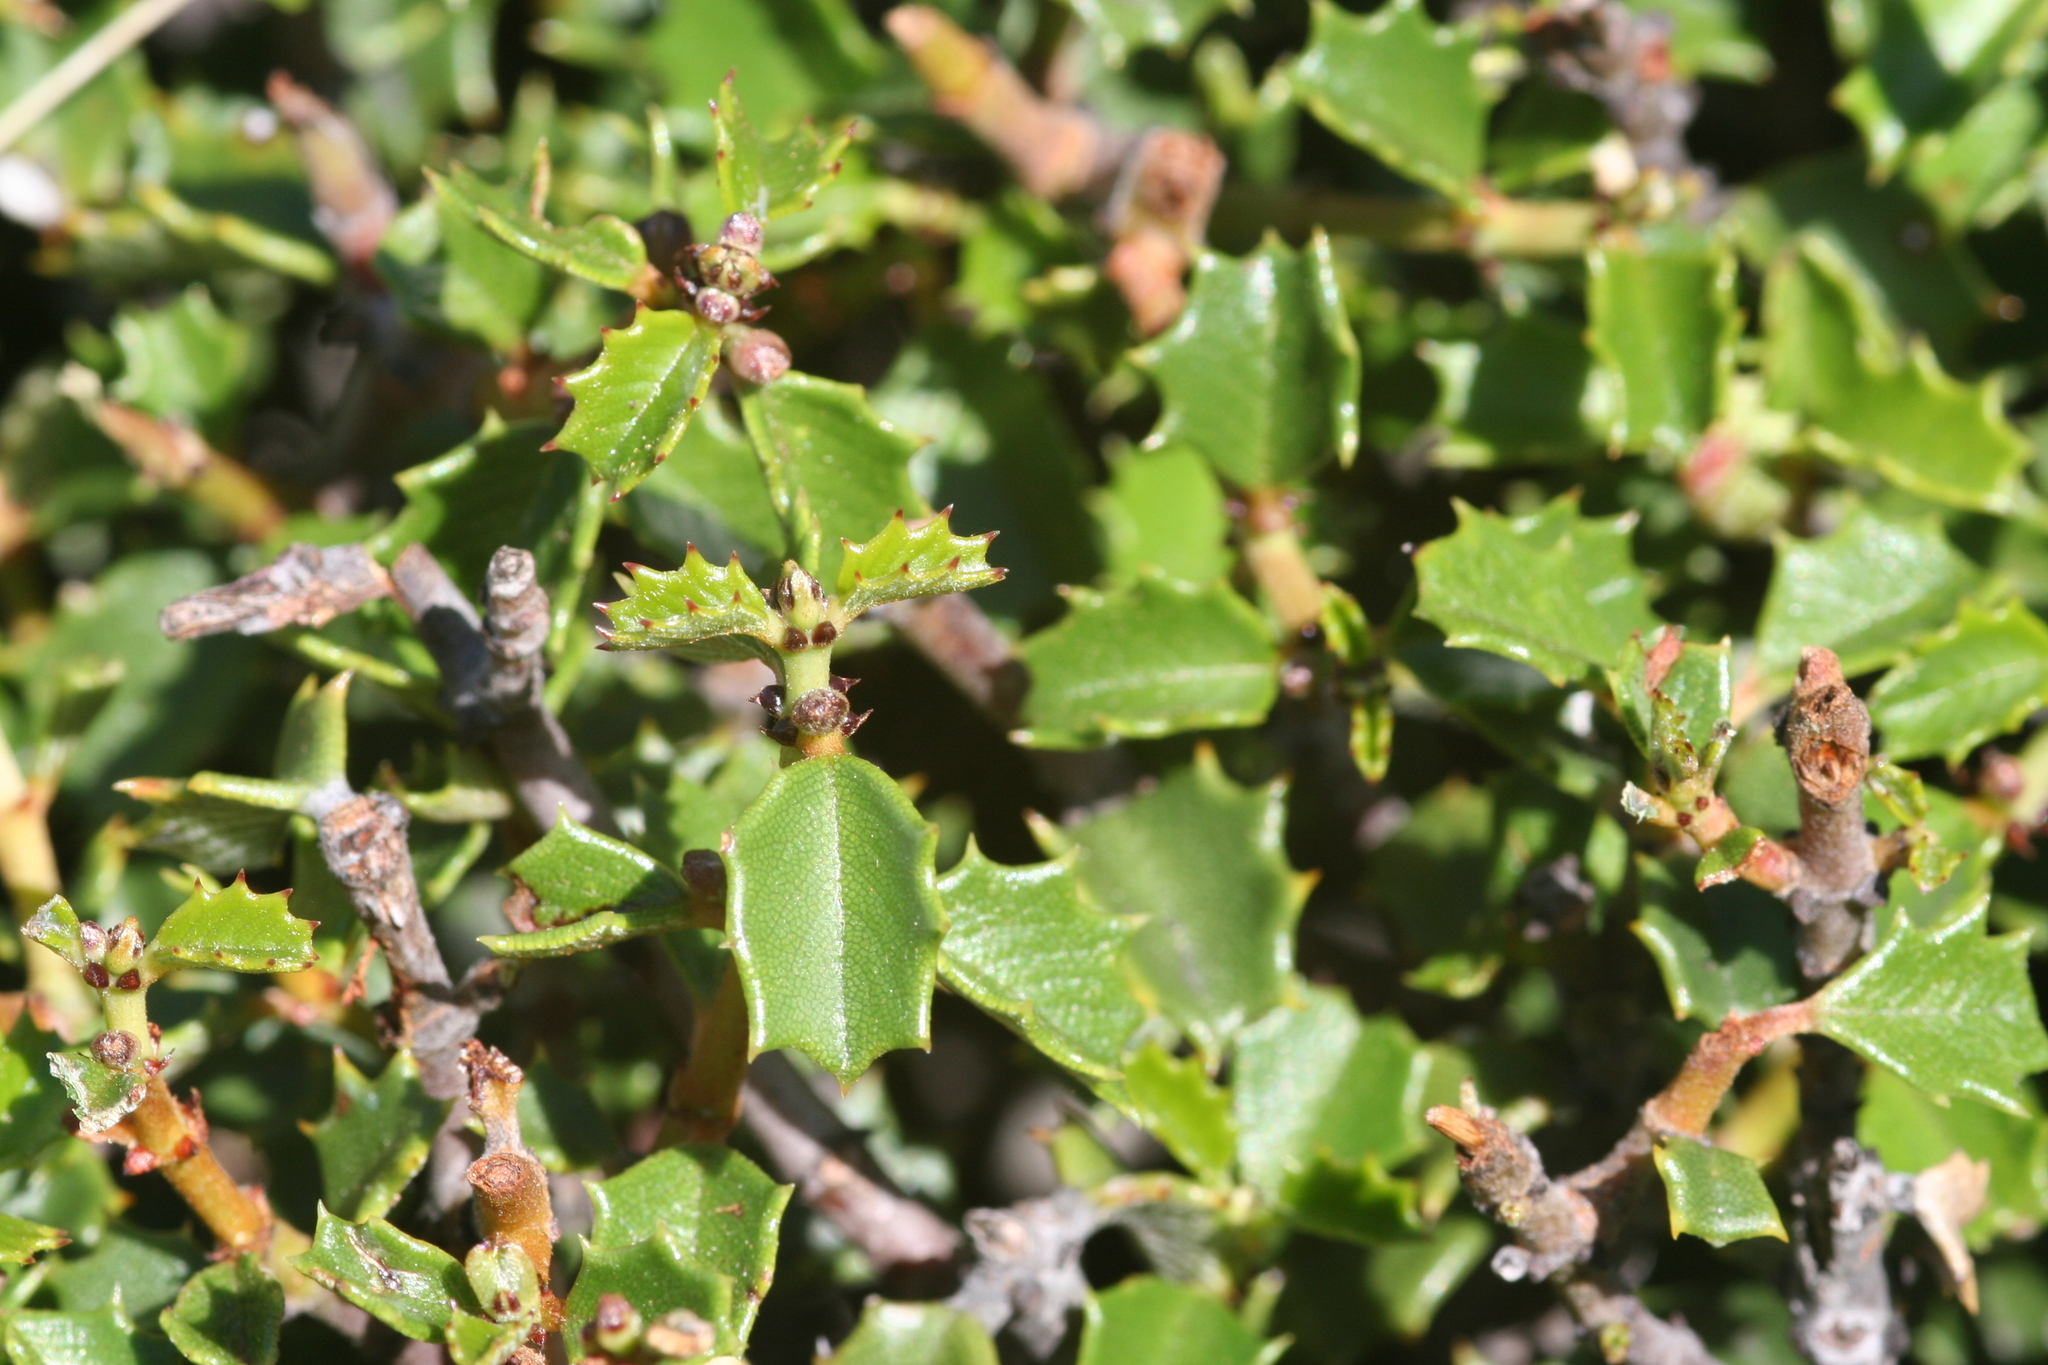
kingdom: Plantae
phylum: Tracheophyta
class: Magnoliopsida
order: Rosales
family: Rhamnaceae
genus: Ceanothus
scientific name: Ceanothus jepsonii
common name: Muskbrush
